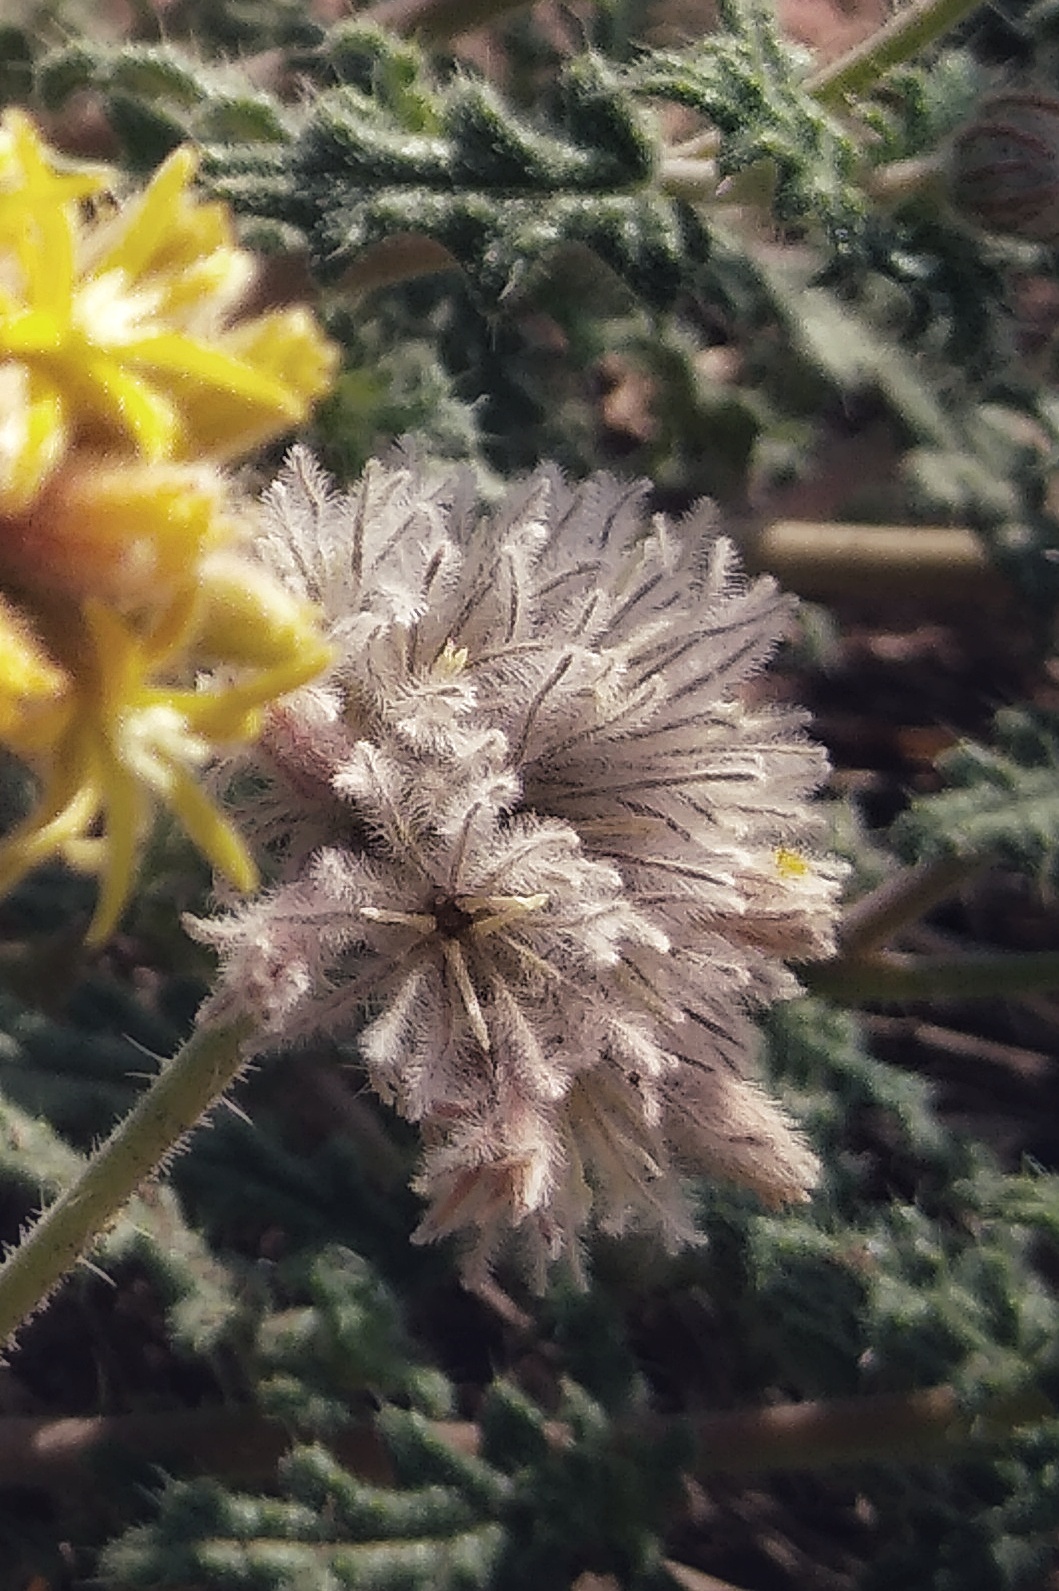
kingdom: Plantae
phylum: Tracheophyta
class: Magnoliopsida
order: Cornales
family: Loasaceae
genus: Cevallia
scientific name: Cevallia sinuata
